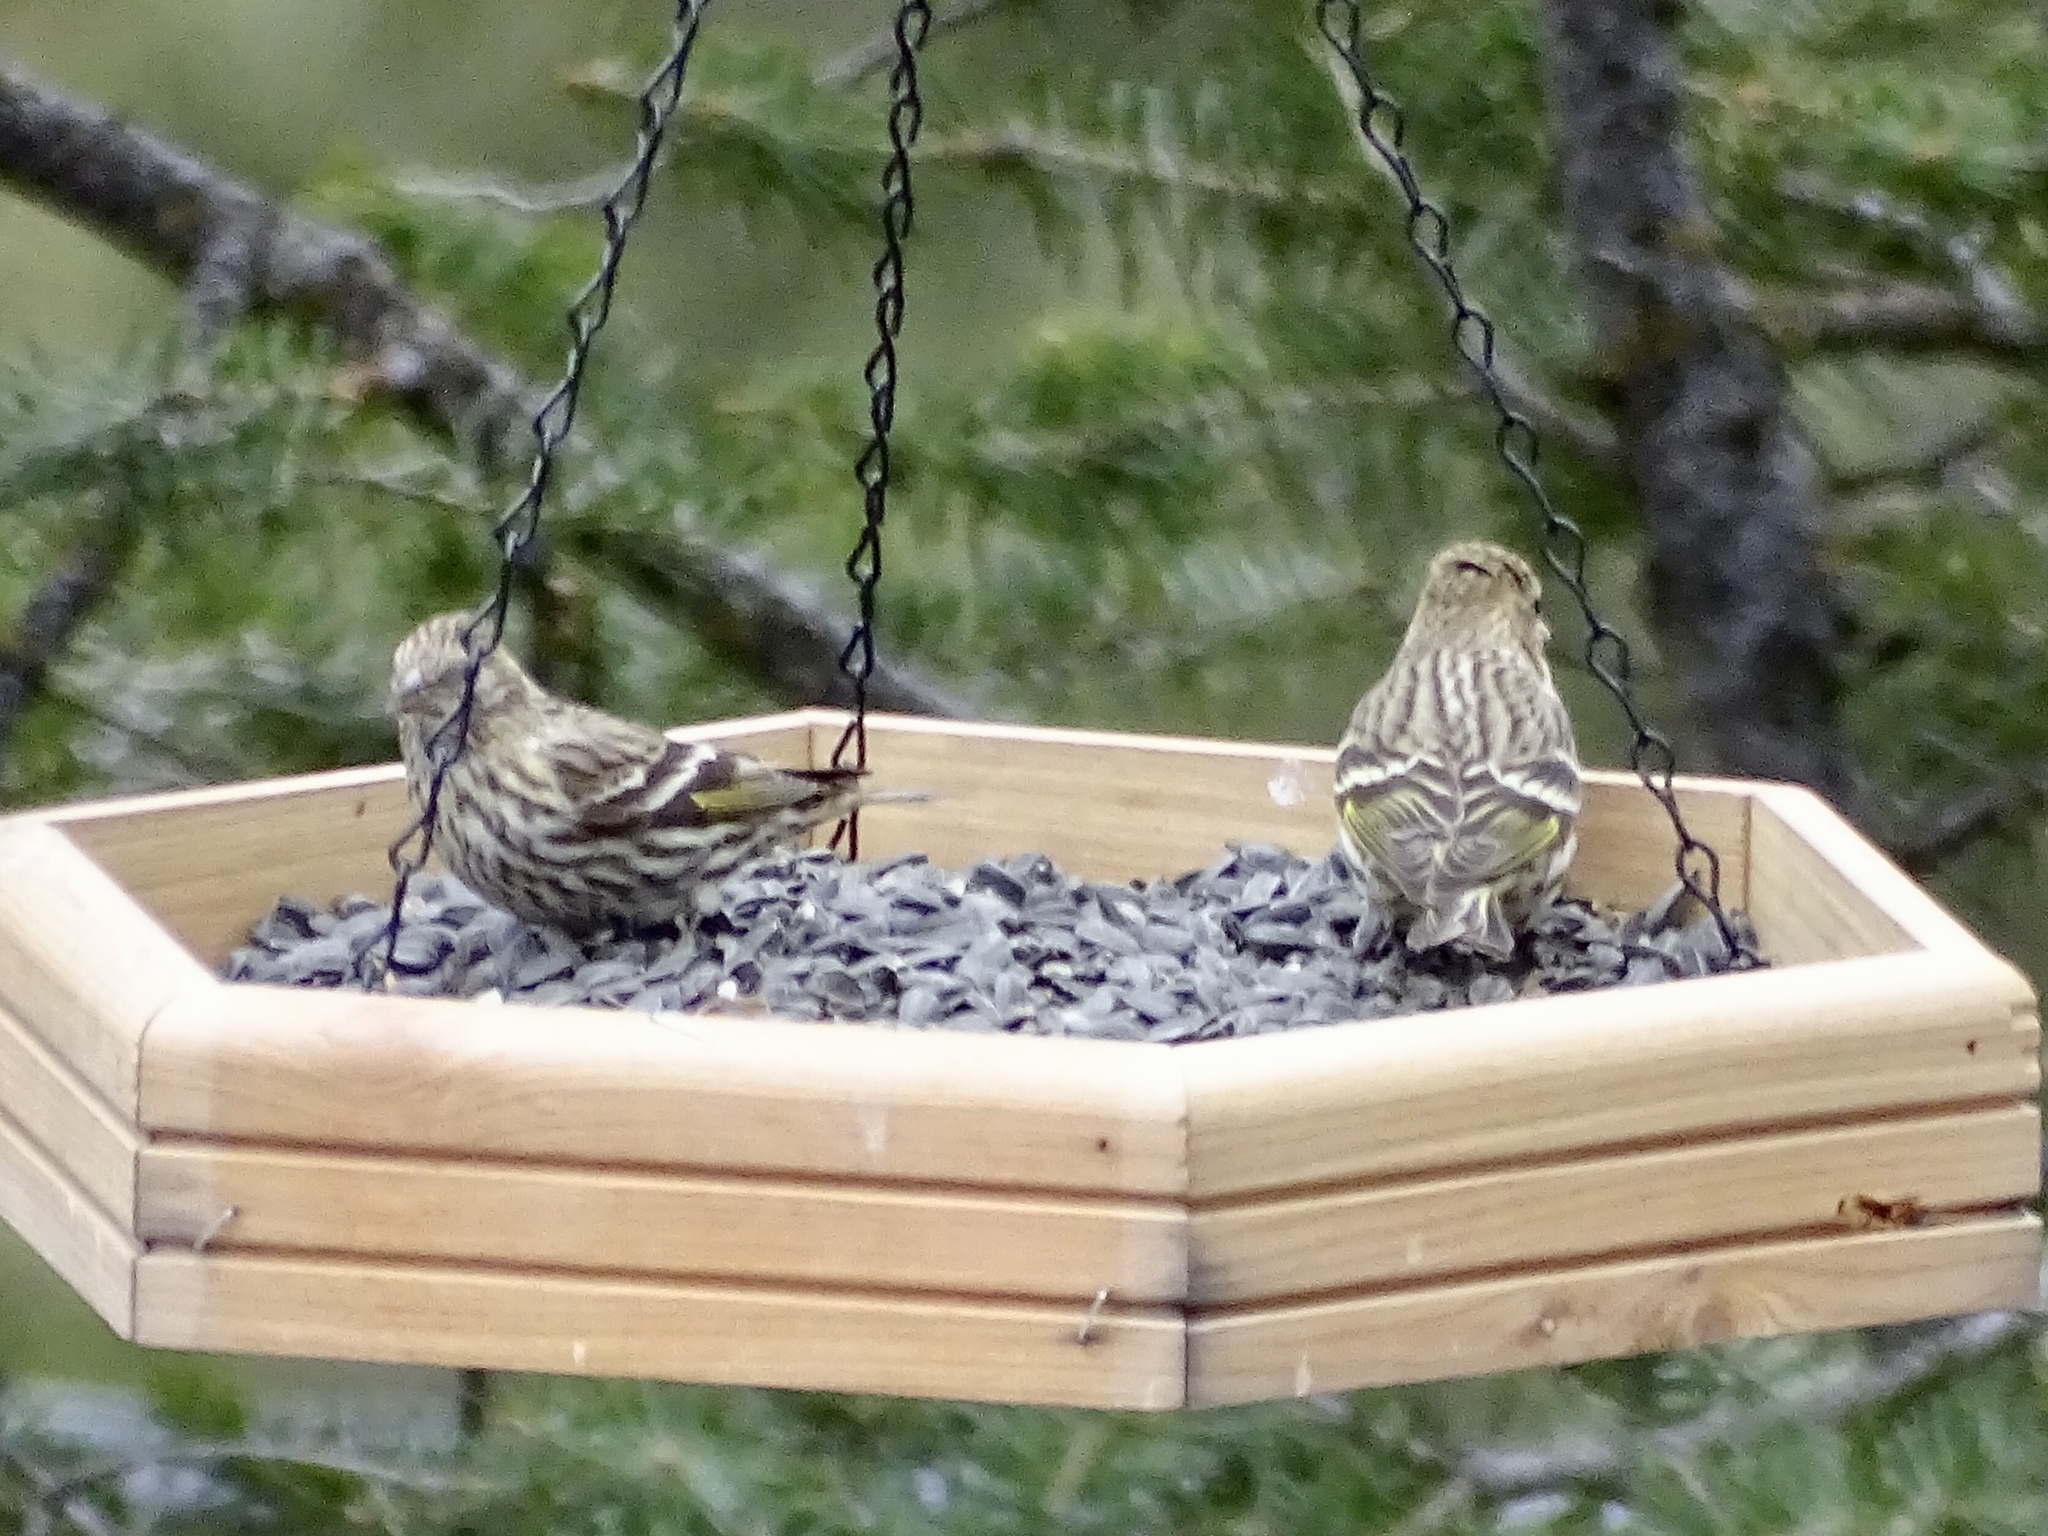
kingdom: Animalia
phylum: Chordata
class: Aves
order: Passeriformes
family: Fringillidae
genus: Spinus
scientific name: Spinus pinus
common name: Pine siskin
